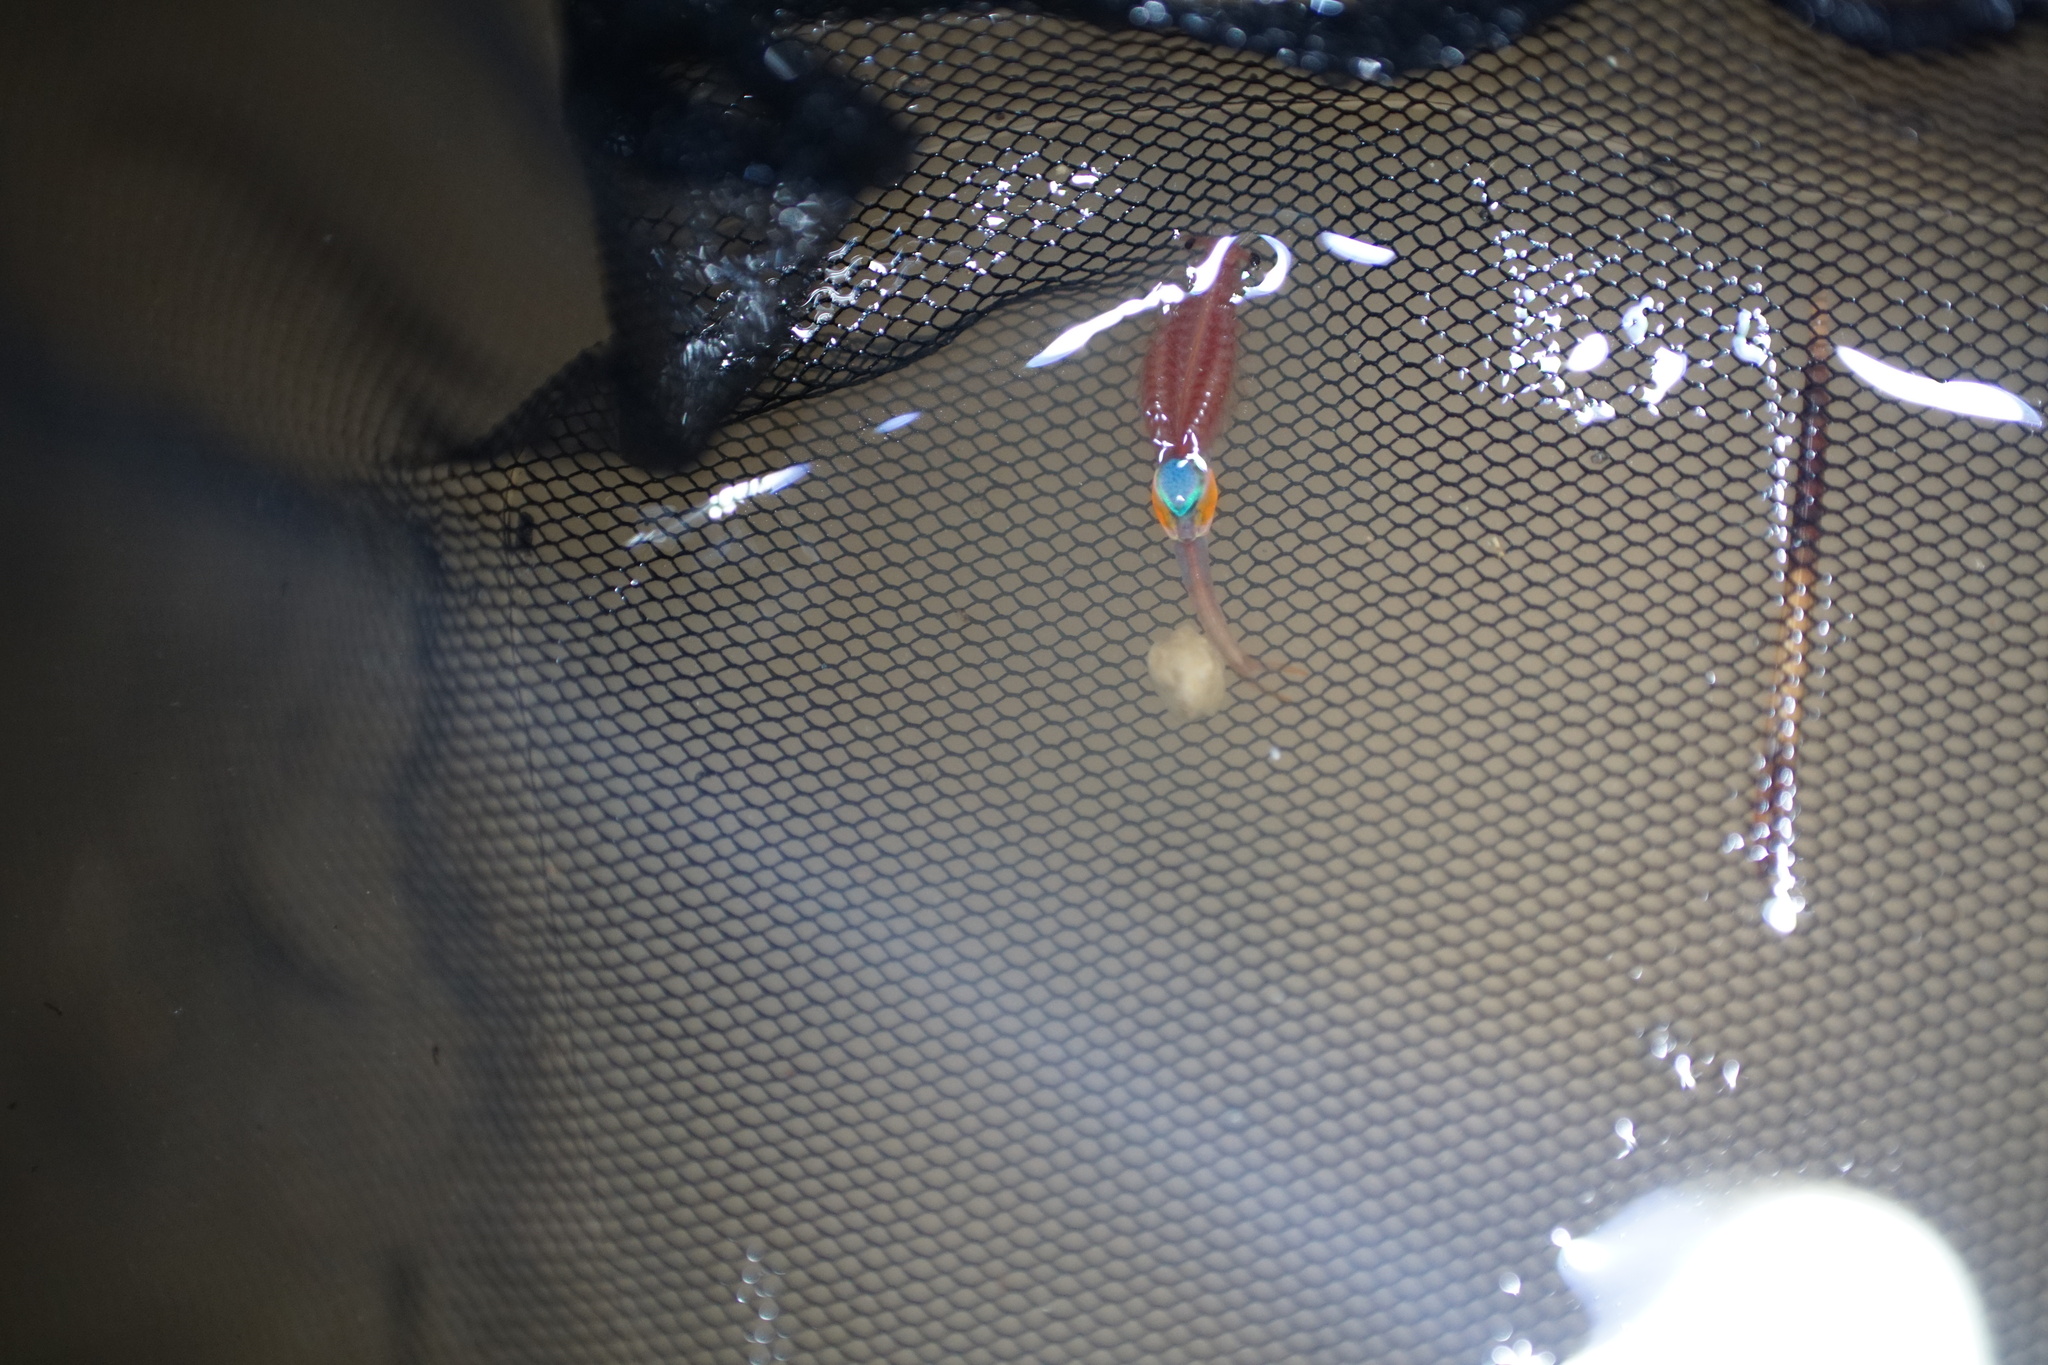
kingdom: Animalia
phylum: Arthropoda
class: Branchiopoda
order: Anostraca
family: Branchipodidae
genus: Branchipus
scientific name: Branchipus schaefferi
